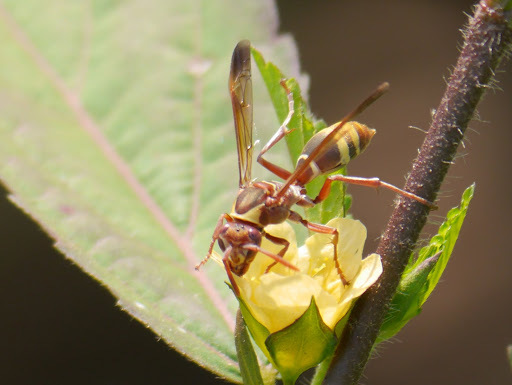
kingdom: Animalia
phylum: Arthropoda
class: Insecta
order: Hymenoptera
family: Eumenidae
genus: Polistes
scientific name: Polistes badius
